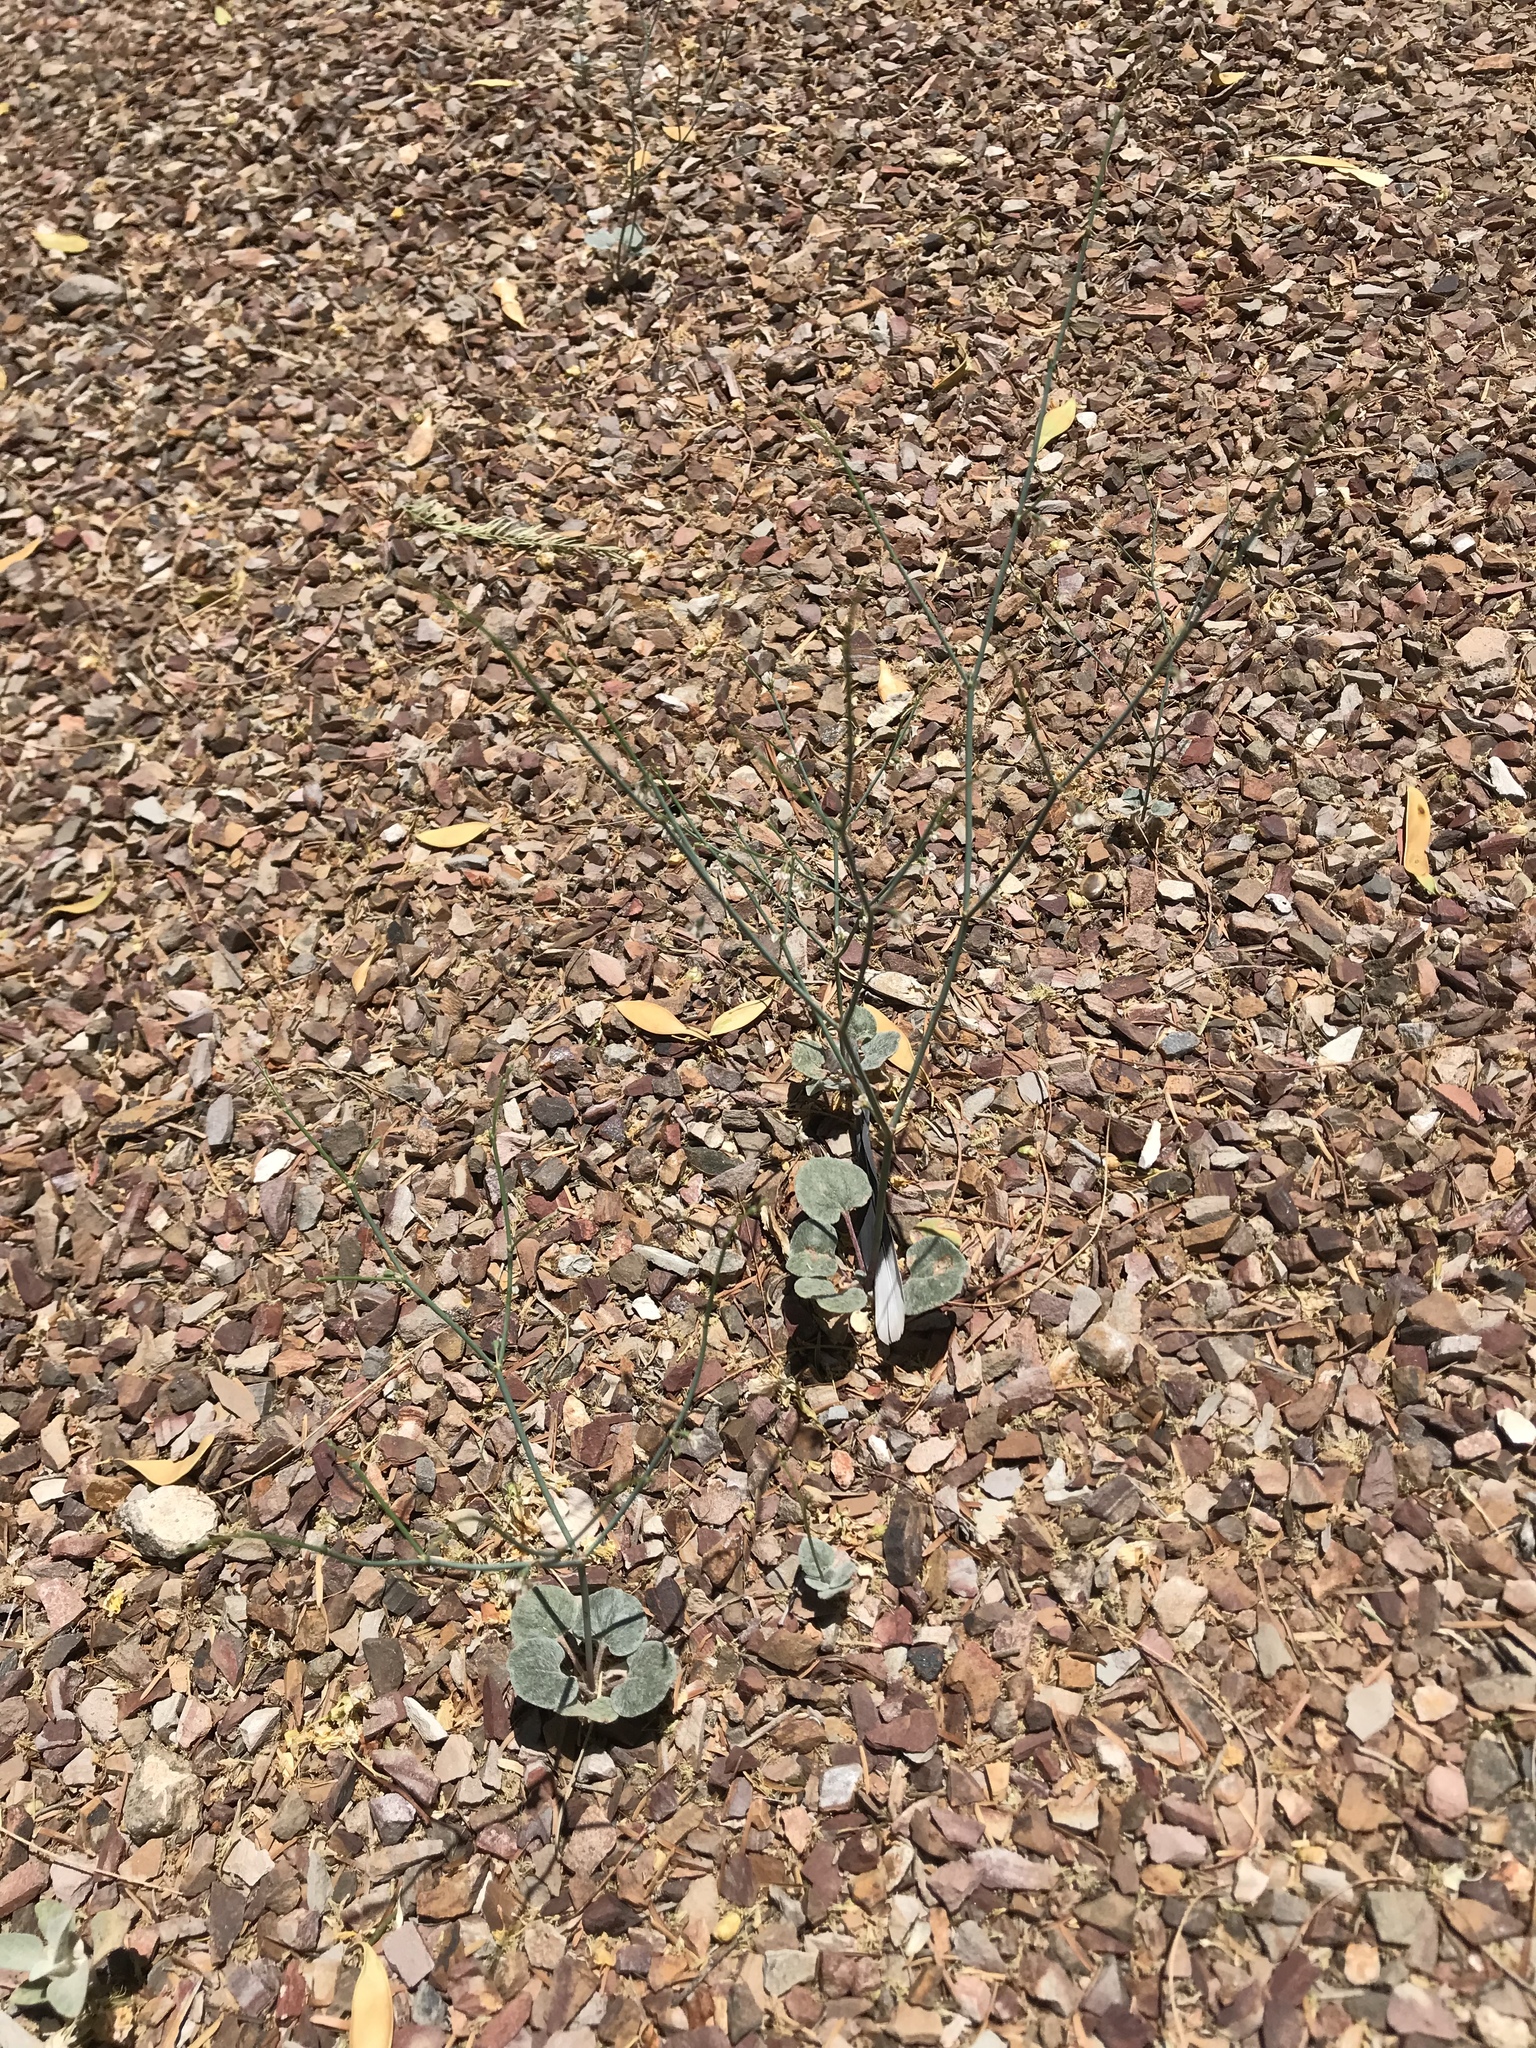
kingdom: Plantae
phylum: Tracheophyta
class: Magnoliopsida
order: Caryophyllales
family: Polygonaceae
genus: Eriogonum
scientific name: Eriogonum deflexum
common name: Skeleton-weed
